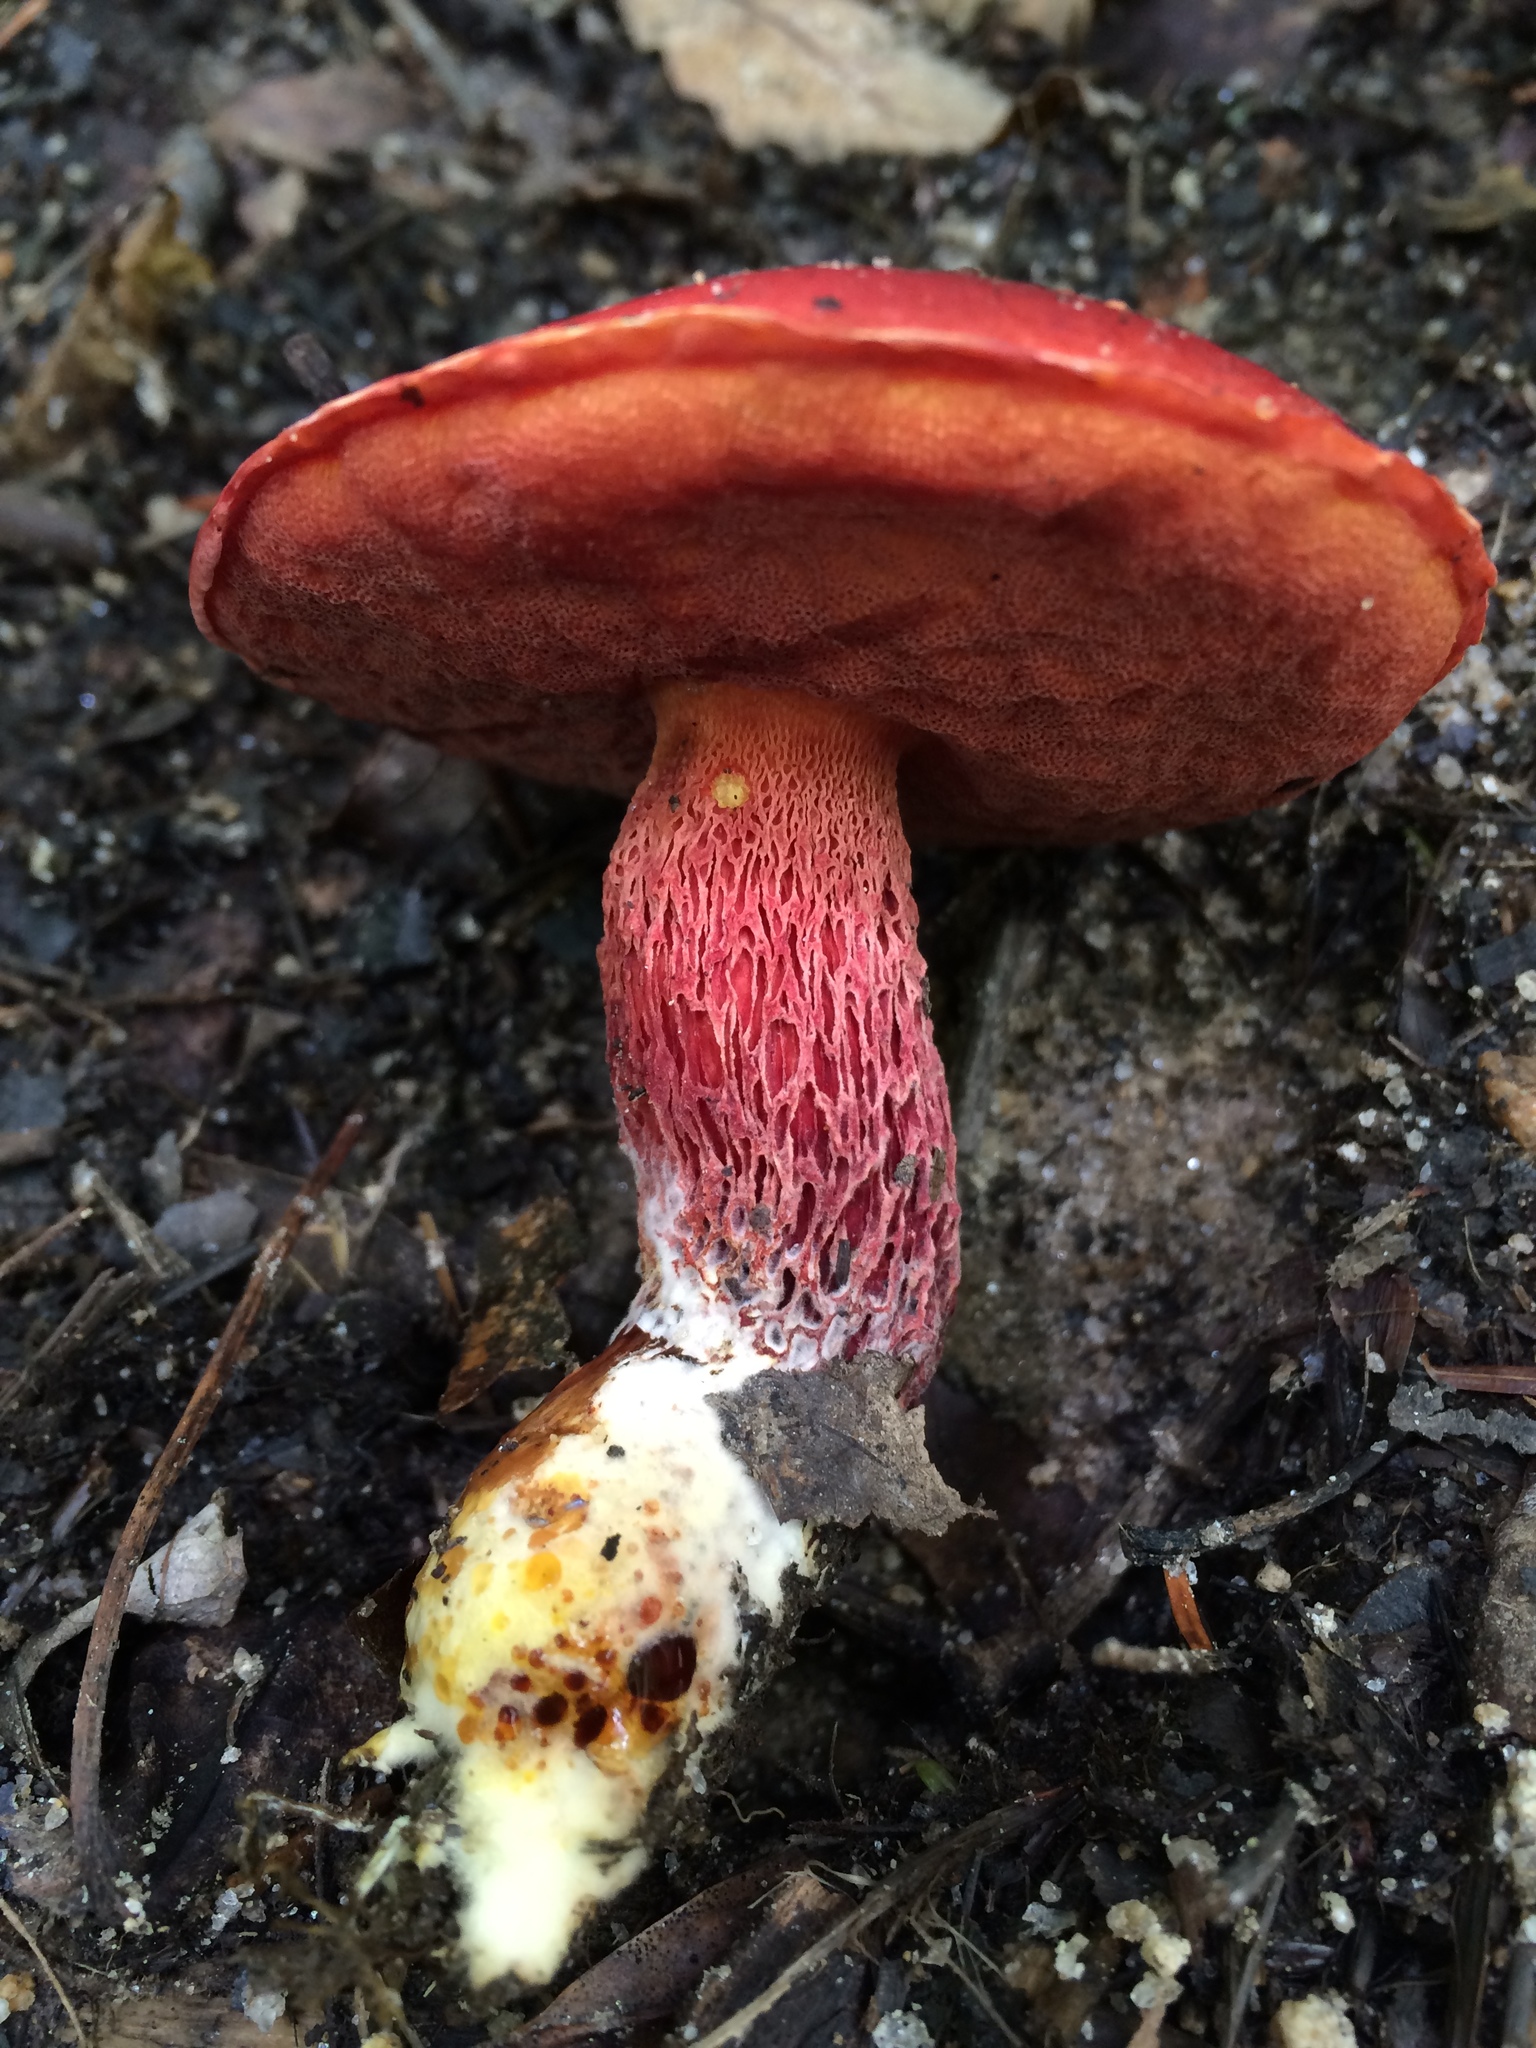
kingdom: Fungi
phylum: Basidiomycota
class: Agaricomycetes
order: Boletales
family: Boletaceae
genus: Butyriboletus
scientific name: Butyriboletus frostii
